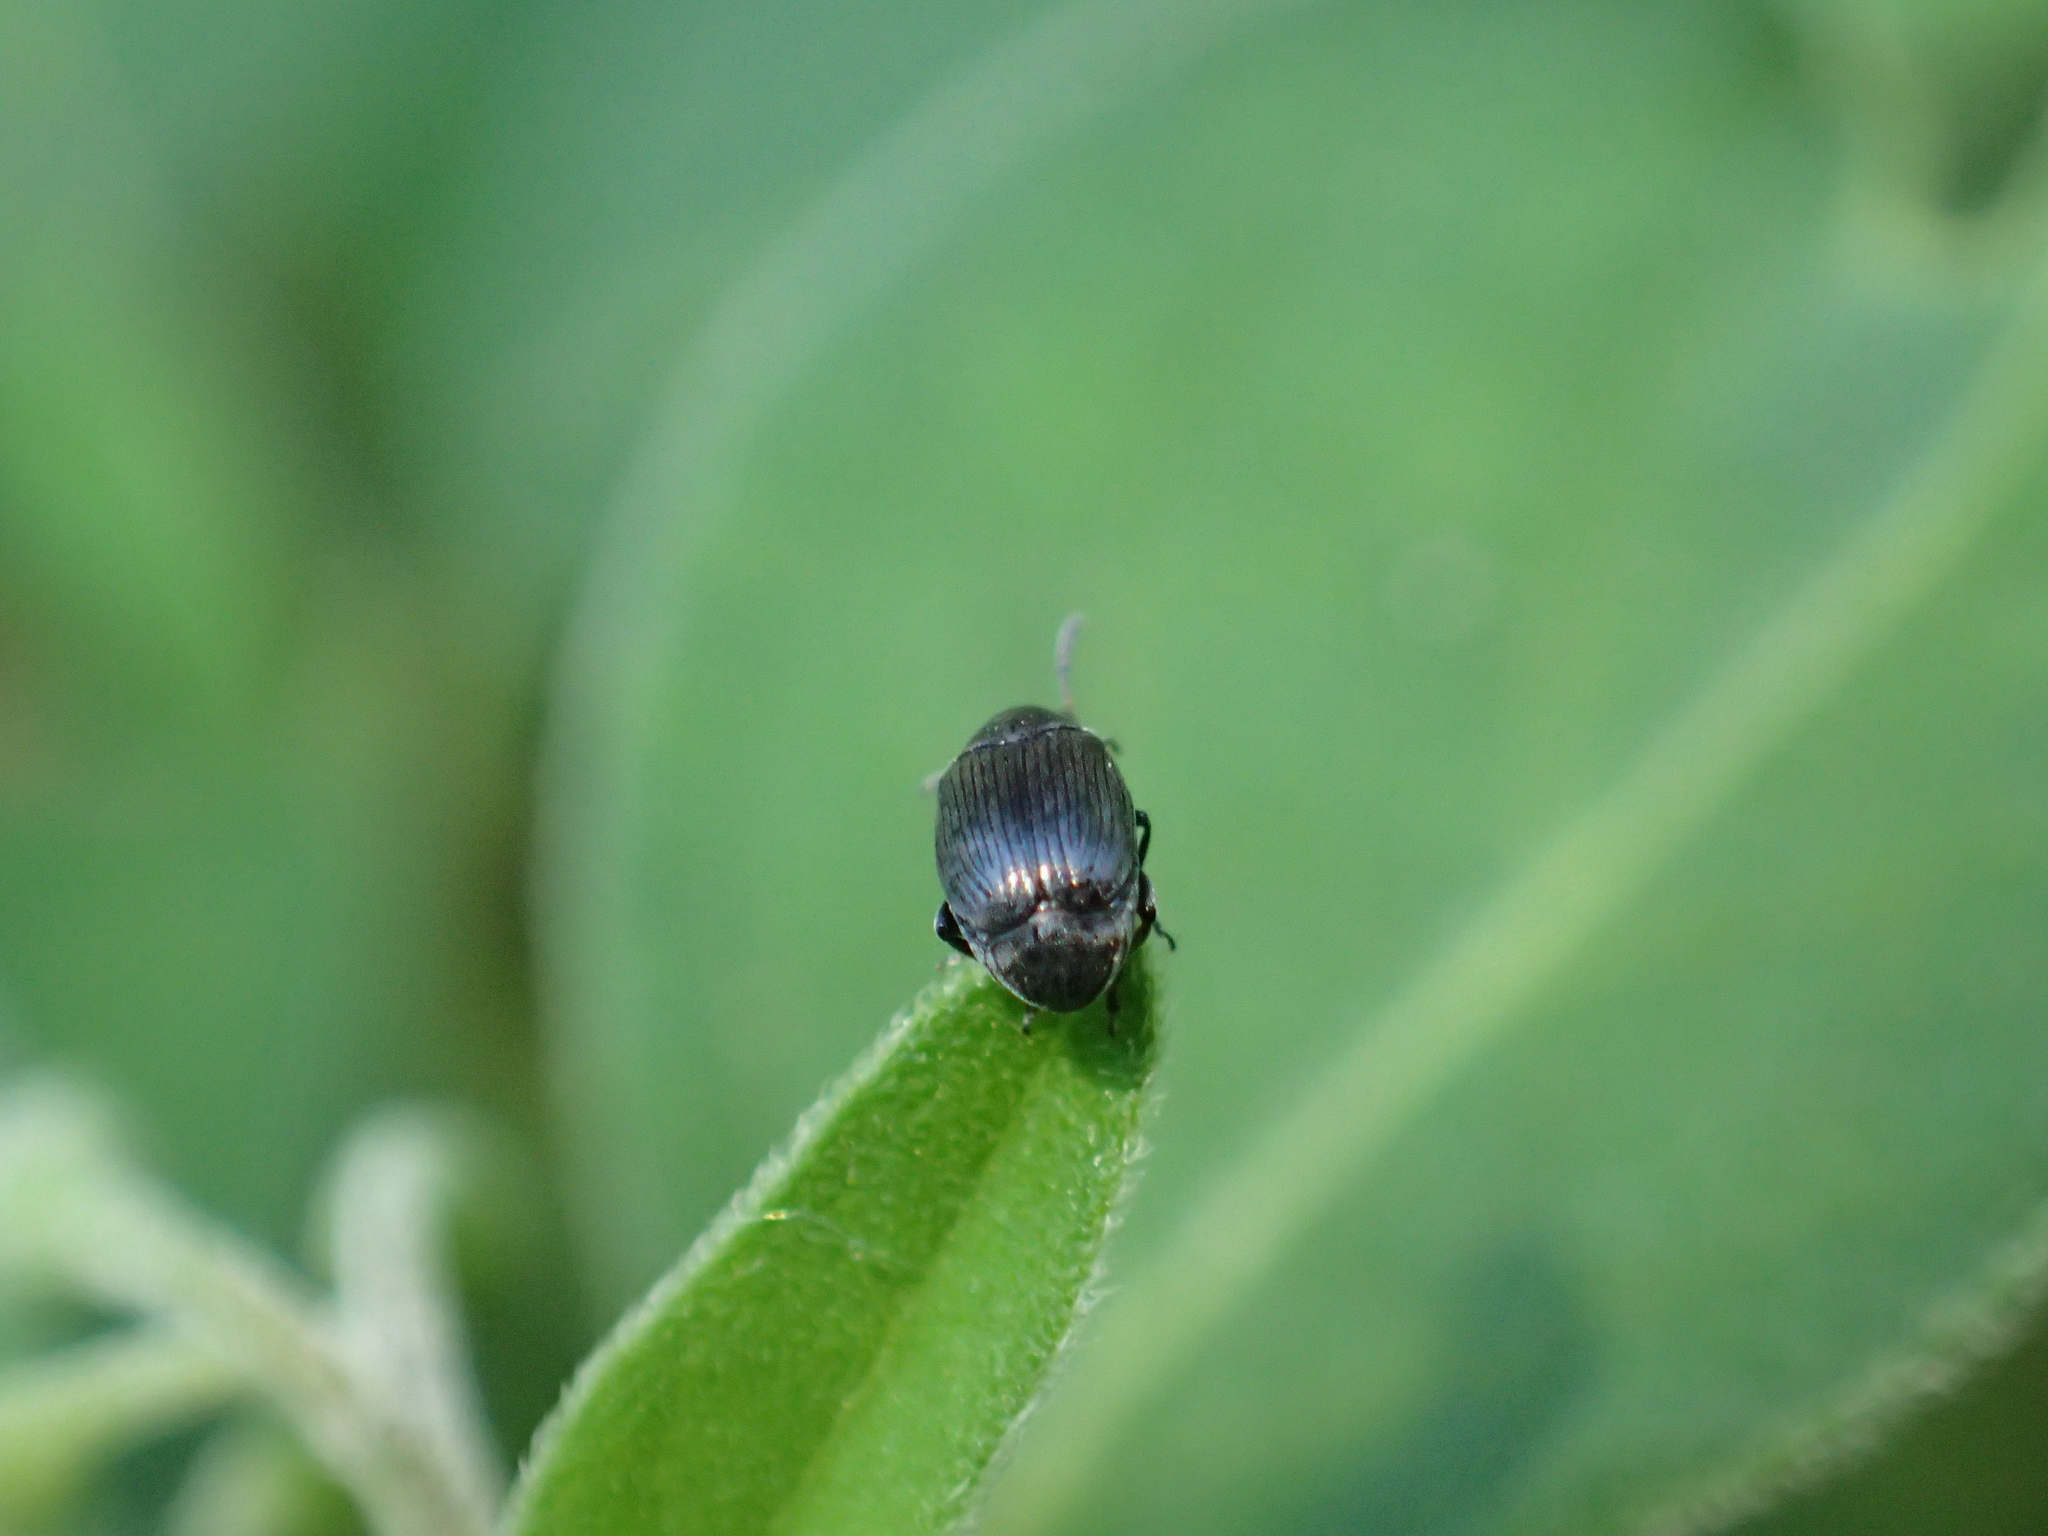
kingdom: Animalia
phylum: Arthropoda
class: Insecta
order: Coleoptera
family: Chrysomelidae
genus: Bruchidius
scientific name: Bruchidius villosus
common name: Scotch broom bruchid
